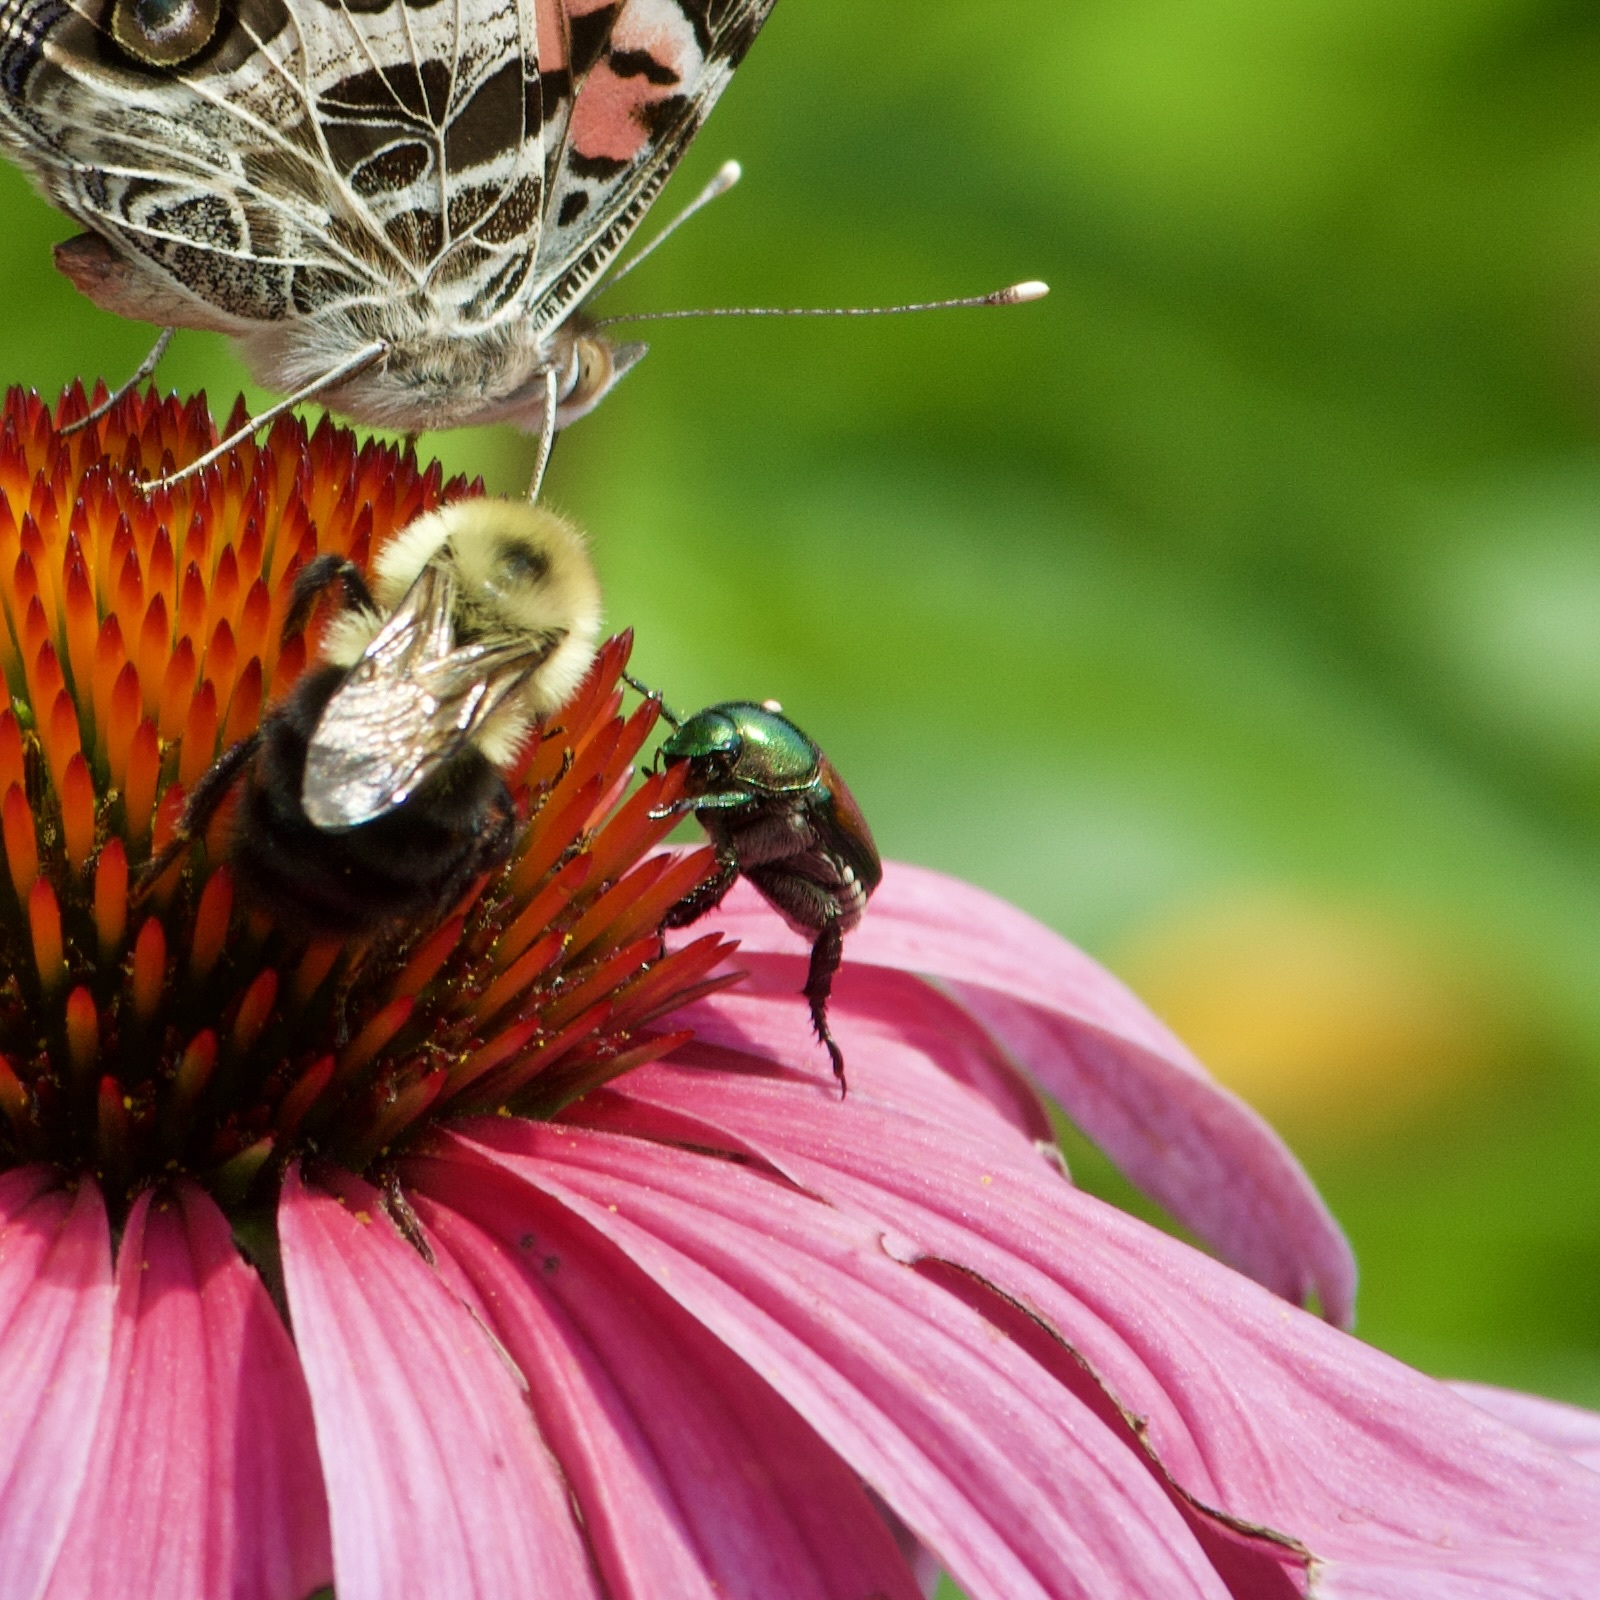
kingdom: Animalia
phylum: Arthropoda
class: Insecta
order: Diptera
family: Tachinidae
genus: Istocheta
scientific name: Istocheta aldrichi
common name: Parasitic wasp
